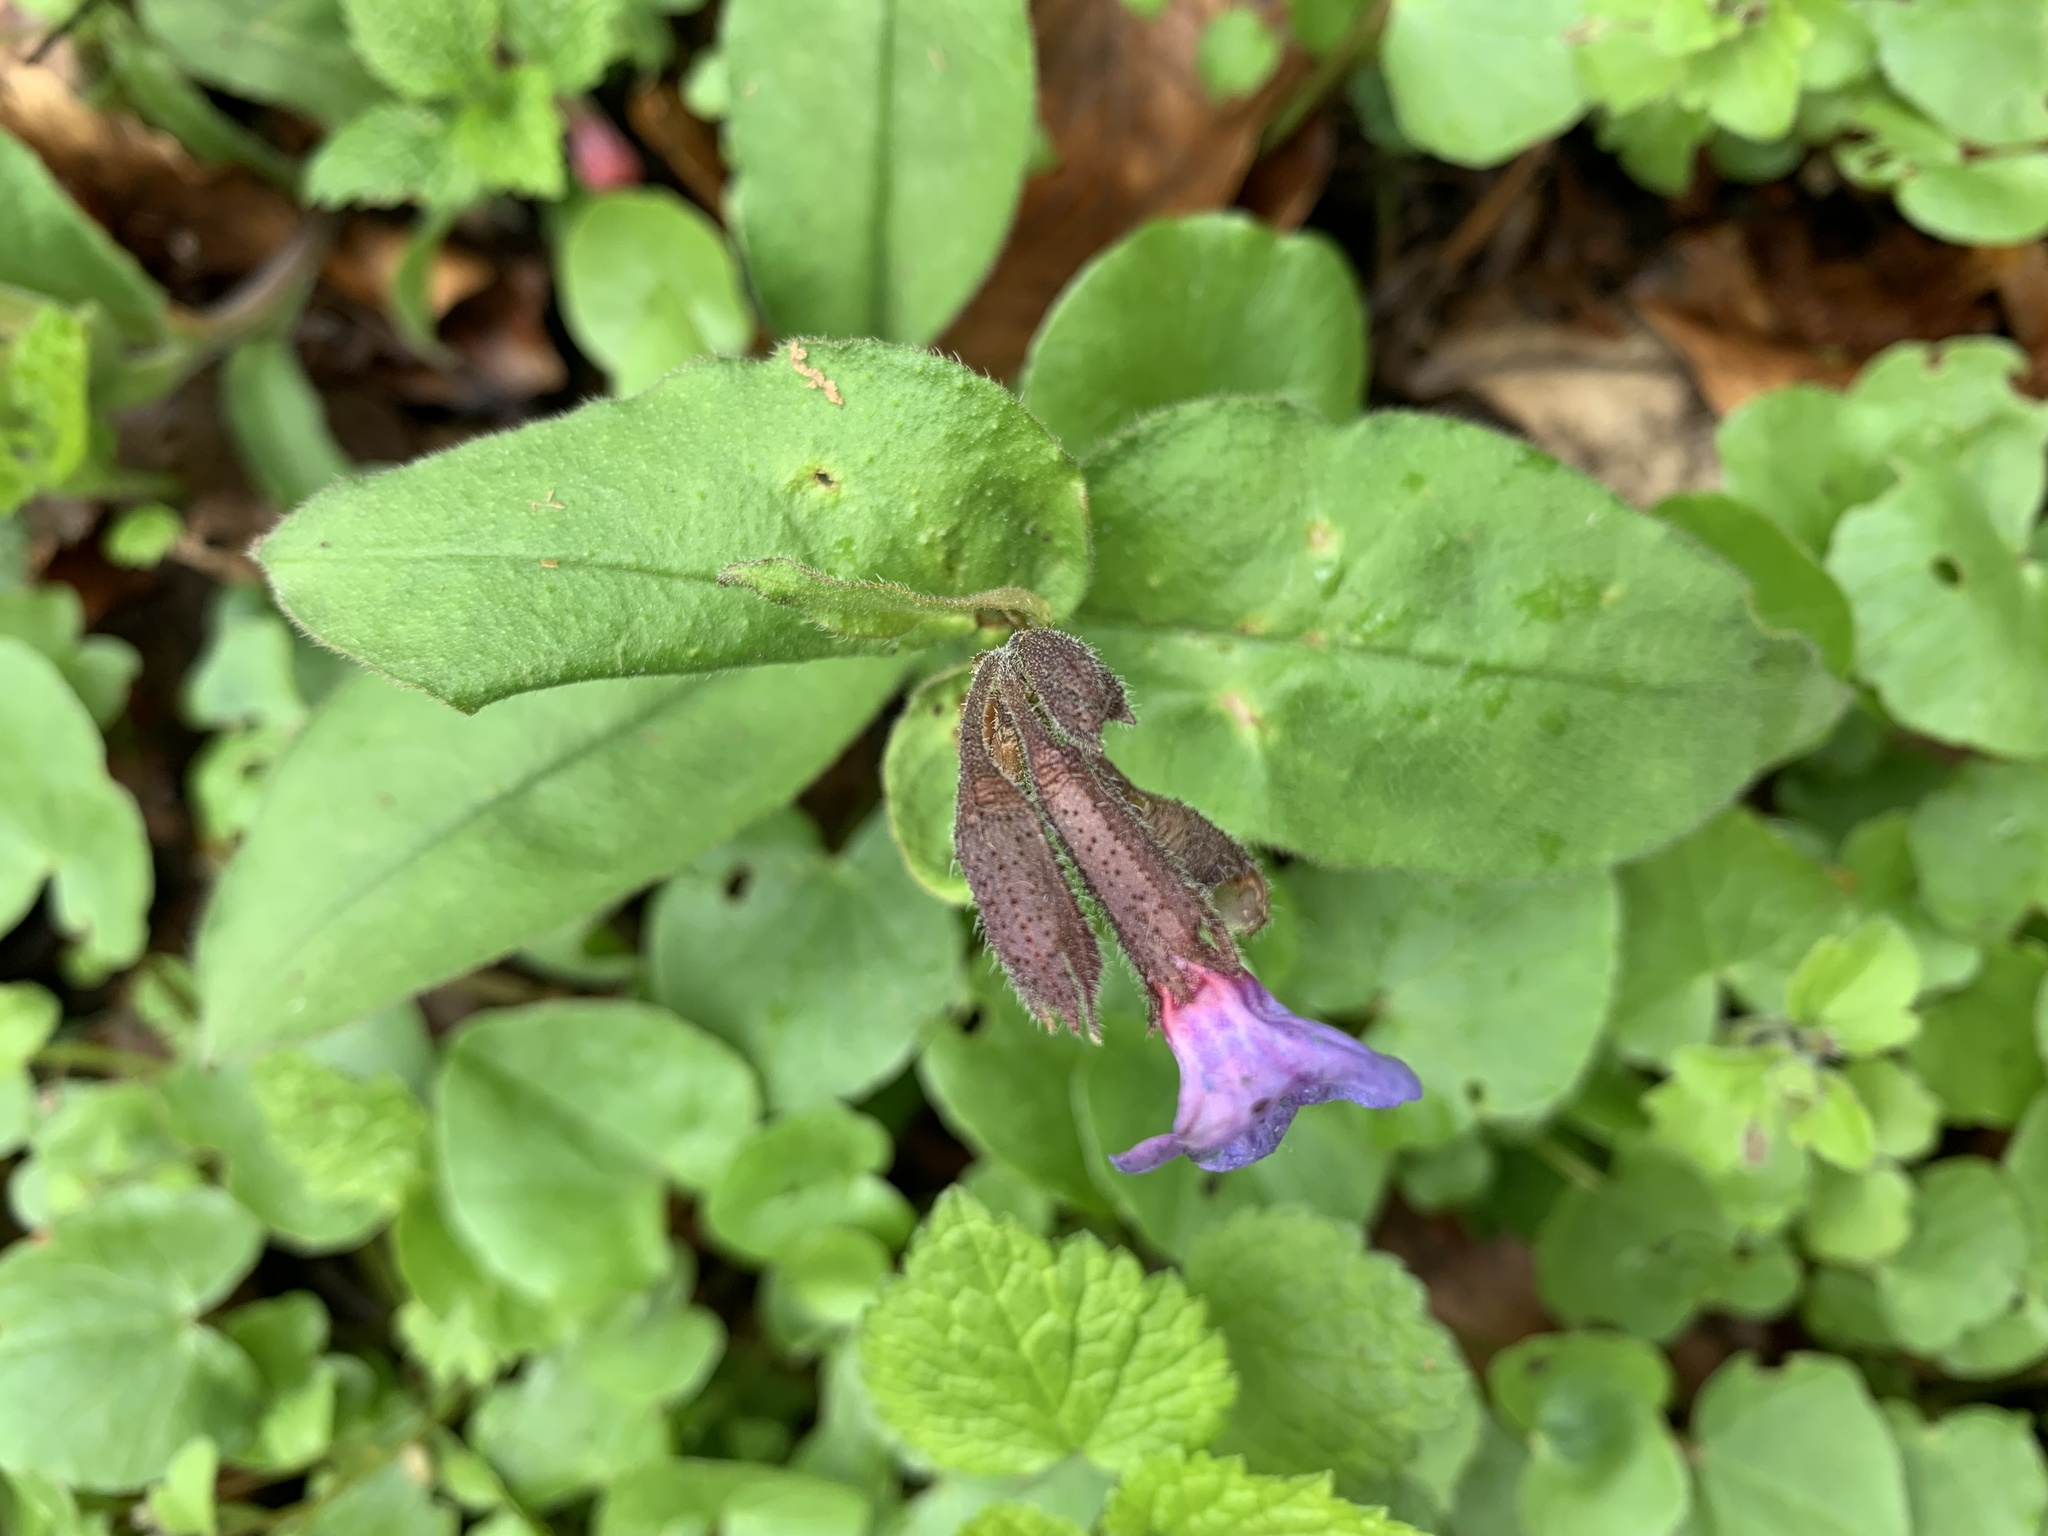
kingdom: Plantae
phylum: Tracheophyta
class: Magnoliopsida
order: Boraginales
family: Boraginaceae
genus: Pulmonaria
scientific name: Pulmonaria obscura
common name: Suffolk lungwort
